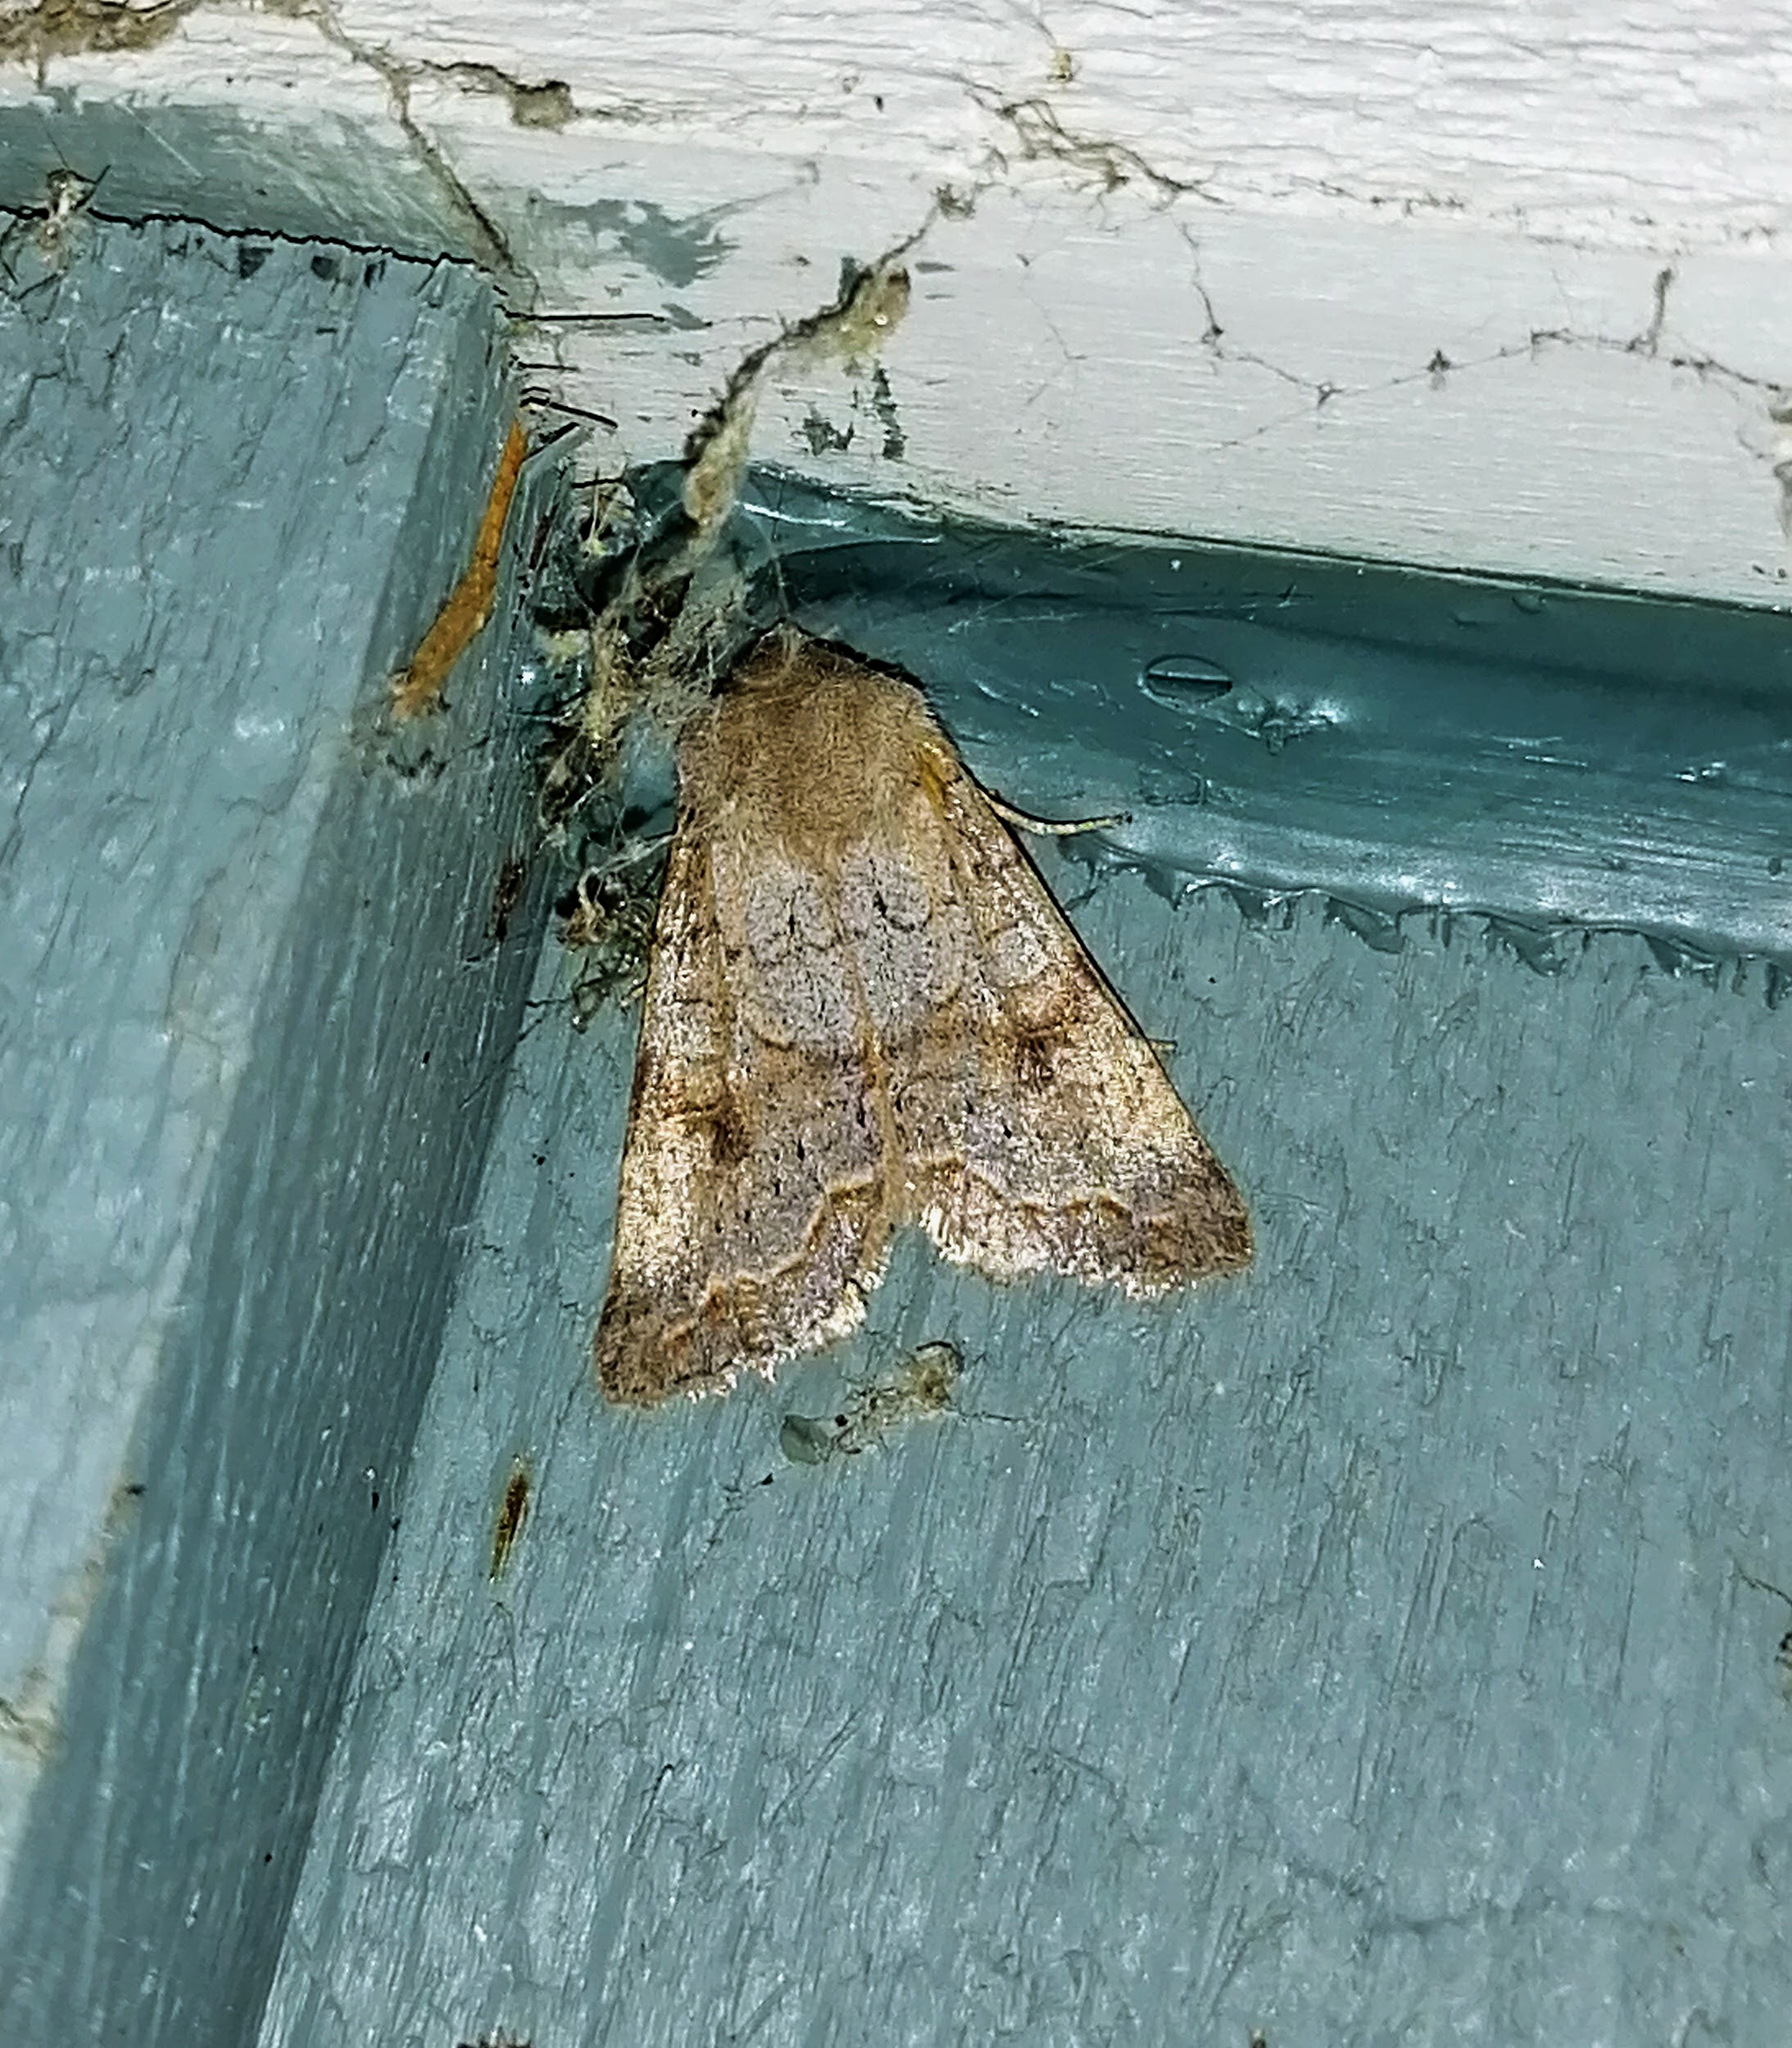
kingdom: Animalia
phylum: Arthropoda
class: Insecta
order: Lepidoptera
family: Noctuidae
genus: Orthosia
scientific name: Orthosia revicta
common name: Rusty whitesided caterpillar
